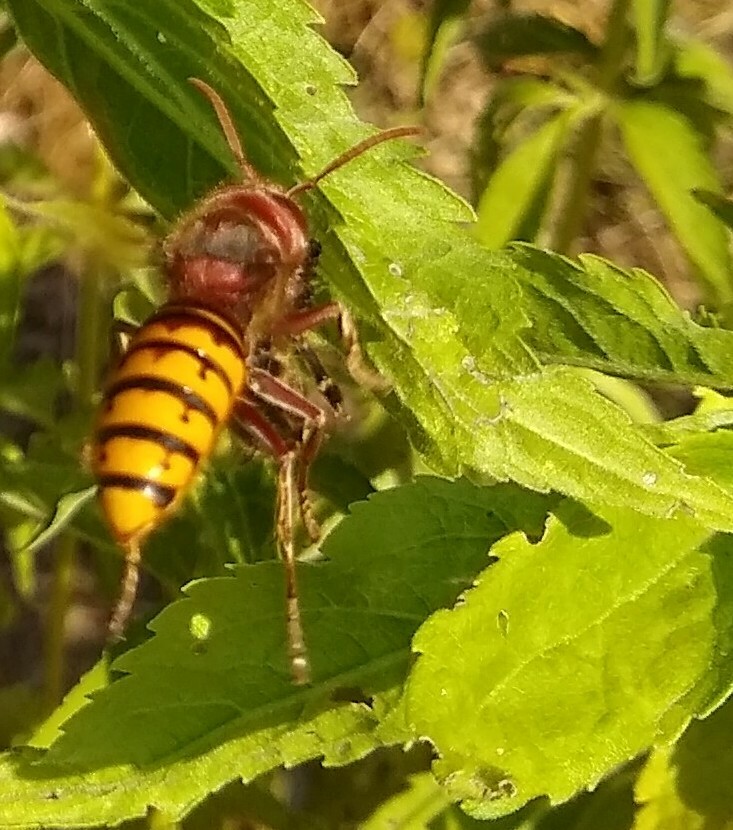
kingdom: Animalia
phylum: Arthropoda
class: Insecta
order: Hymenoptera
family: Vespidae
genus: Vespa
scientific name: Vespa crabro
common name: Hornet
